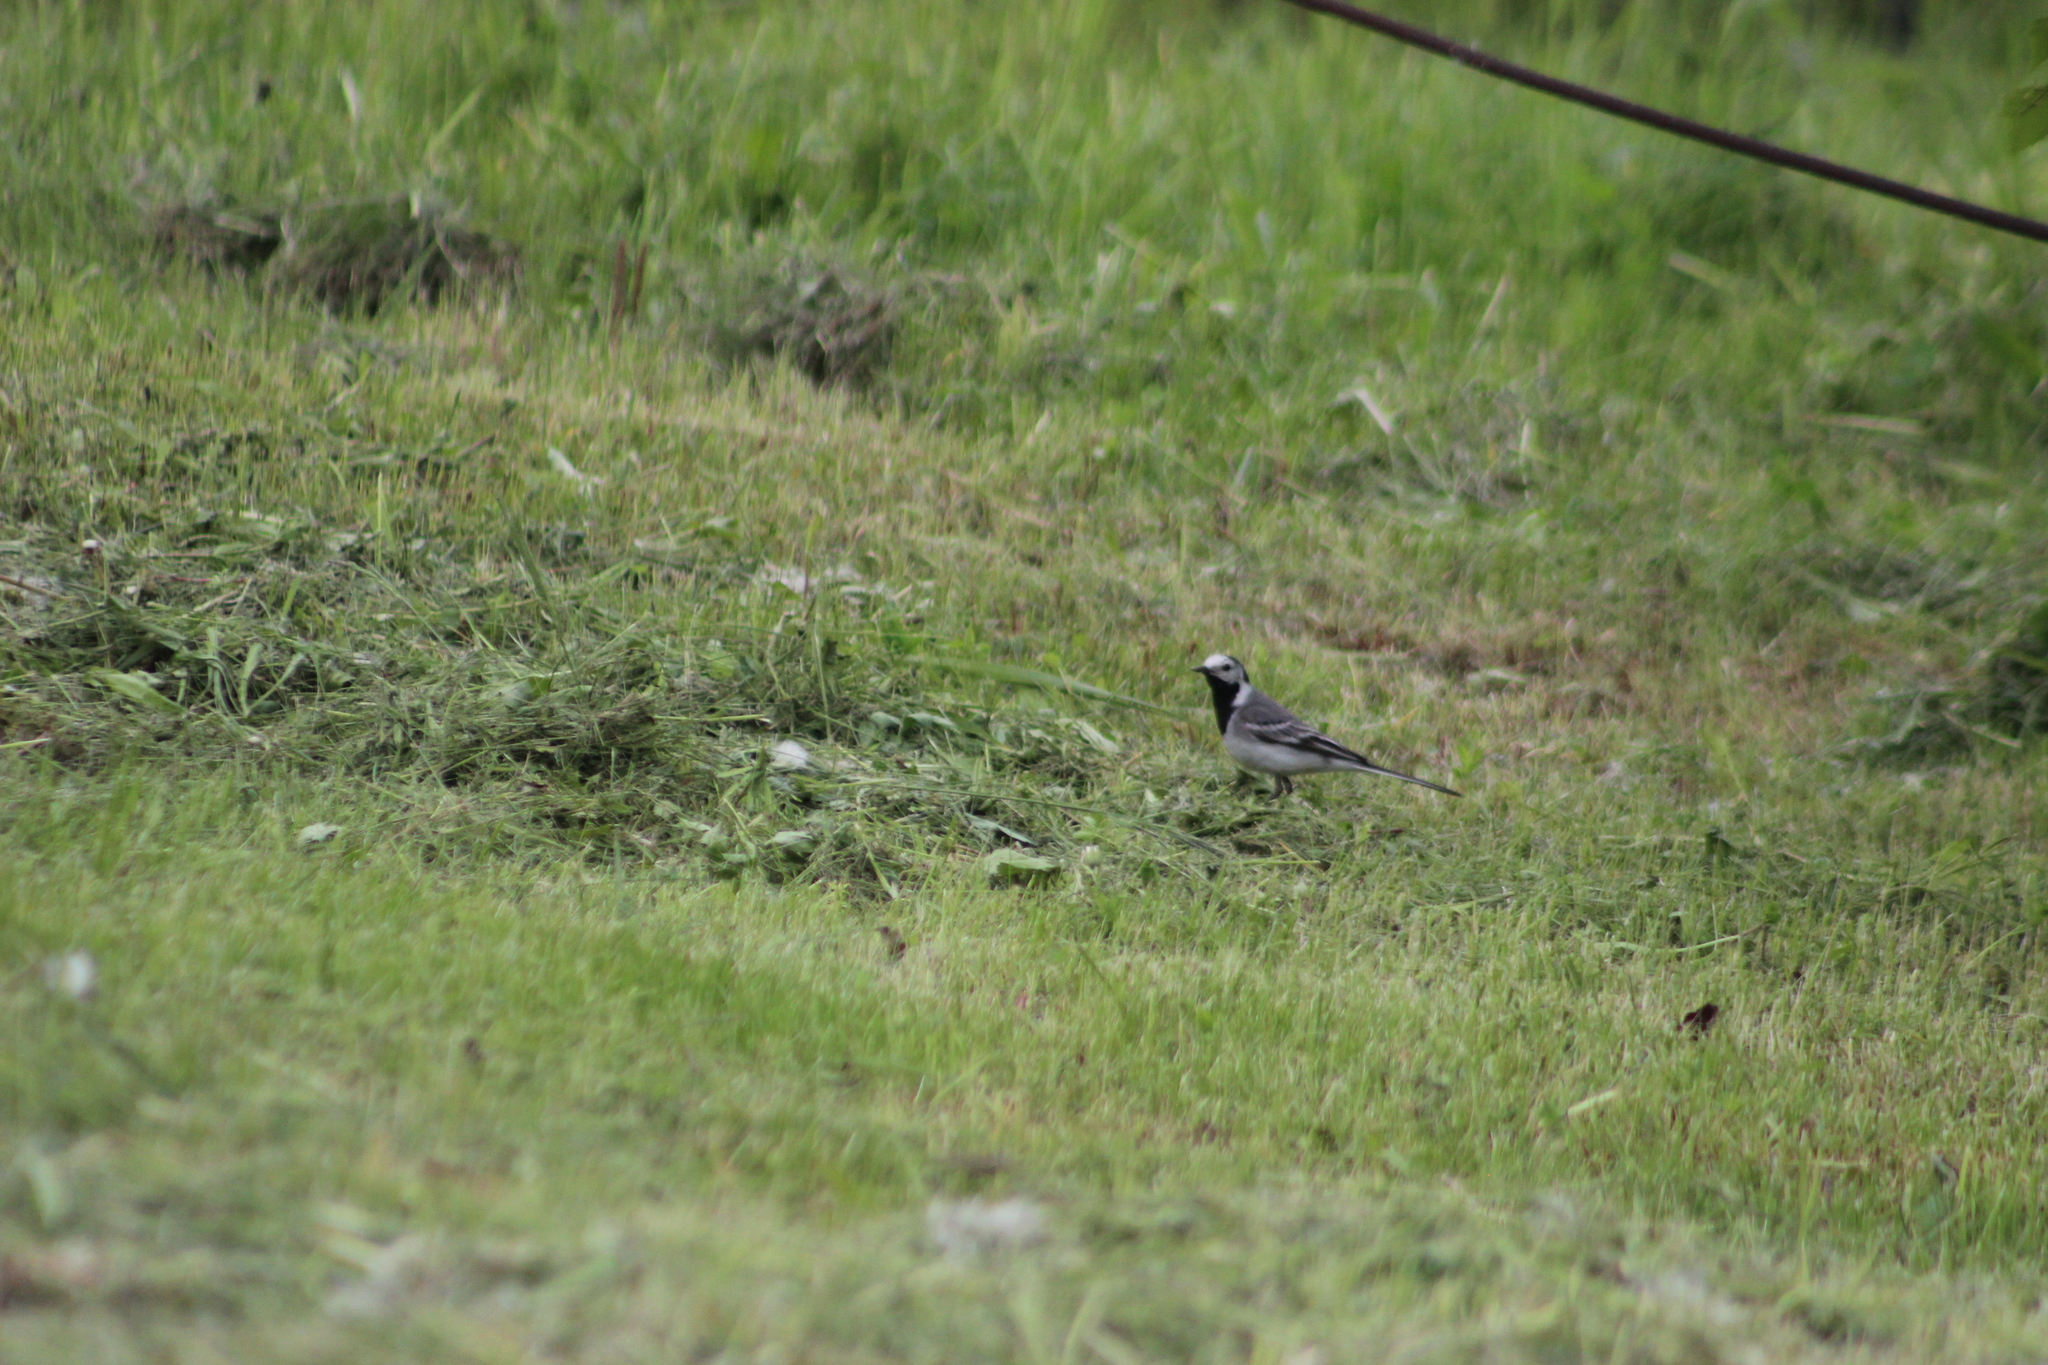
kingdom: Animalia
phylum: Chordata
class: Aves
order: Passeriformes
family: Motacillidae
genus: Motacilla
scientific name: Motacilla alba
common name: White wagtail
